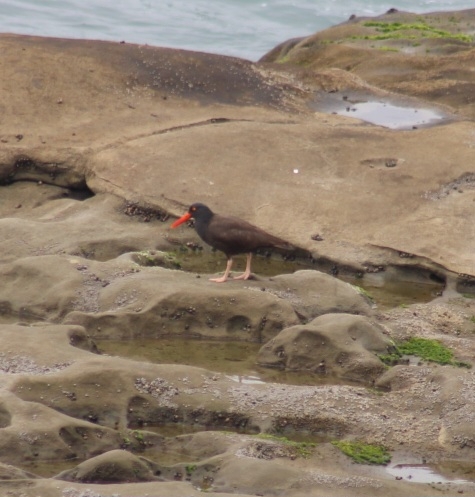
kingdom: Animalia
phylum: Chordata
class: Aves
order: Charadriiformes
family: Haematopodidae
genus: Haematopus
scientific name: Haematopus bachmani
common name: Black oystercatcher
